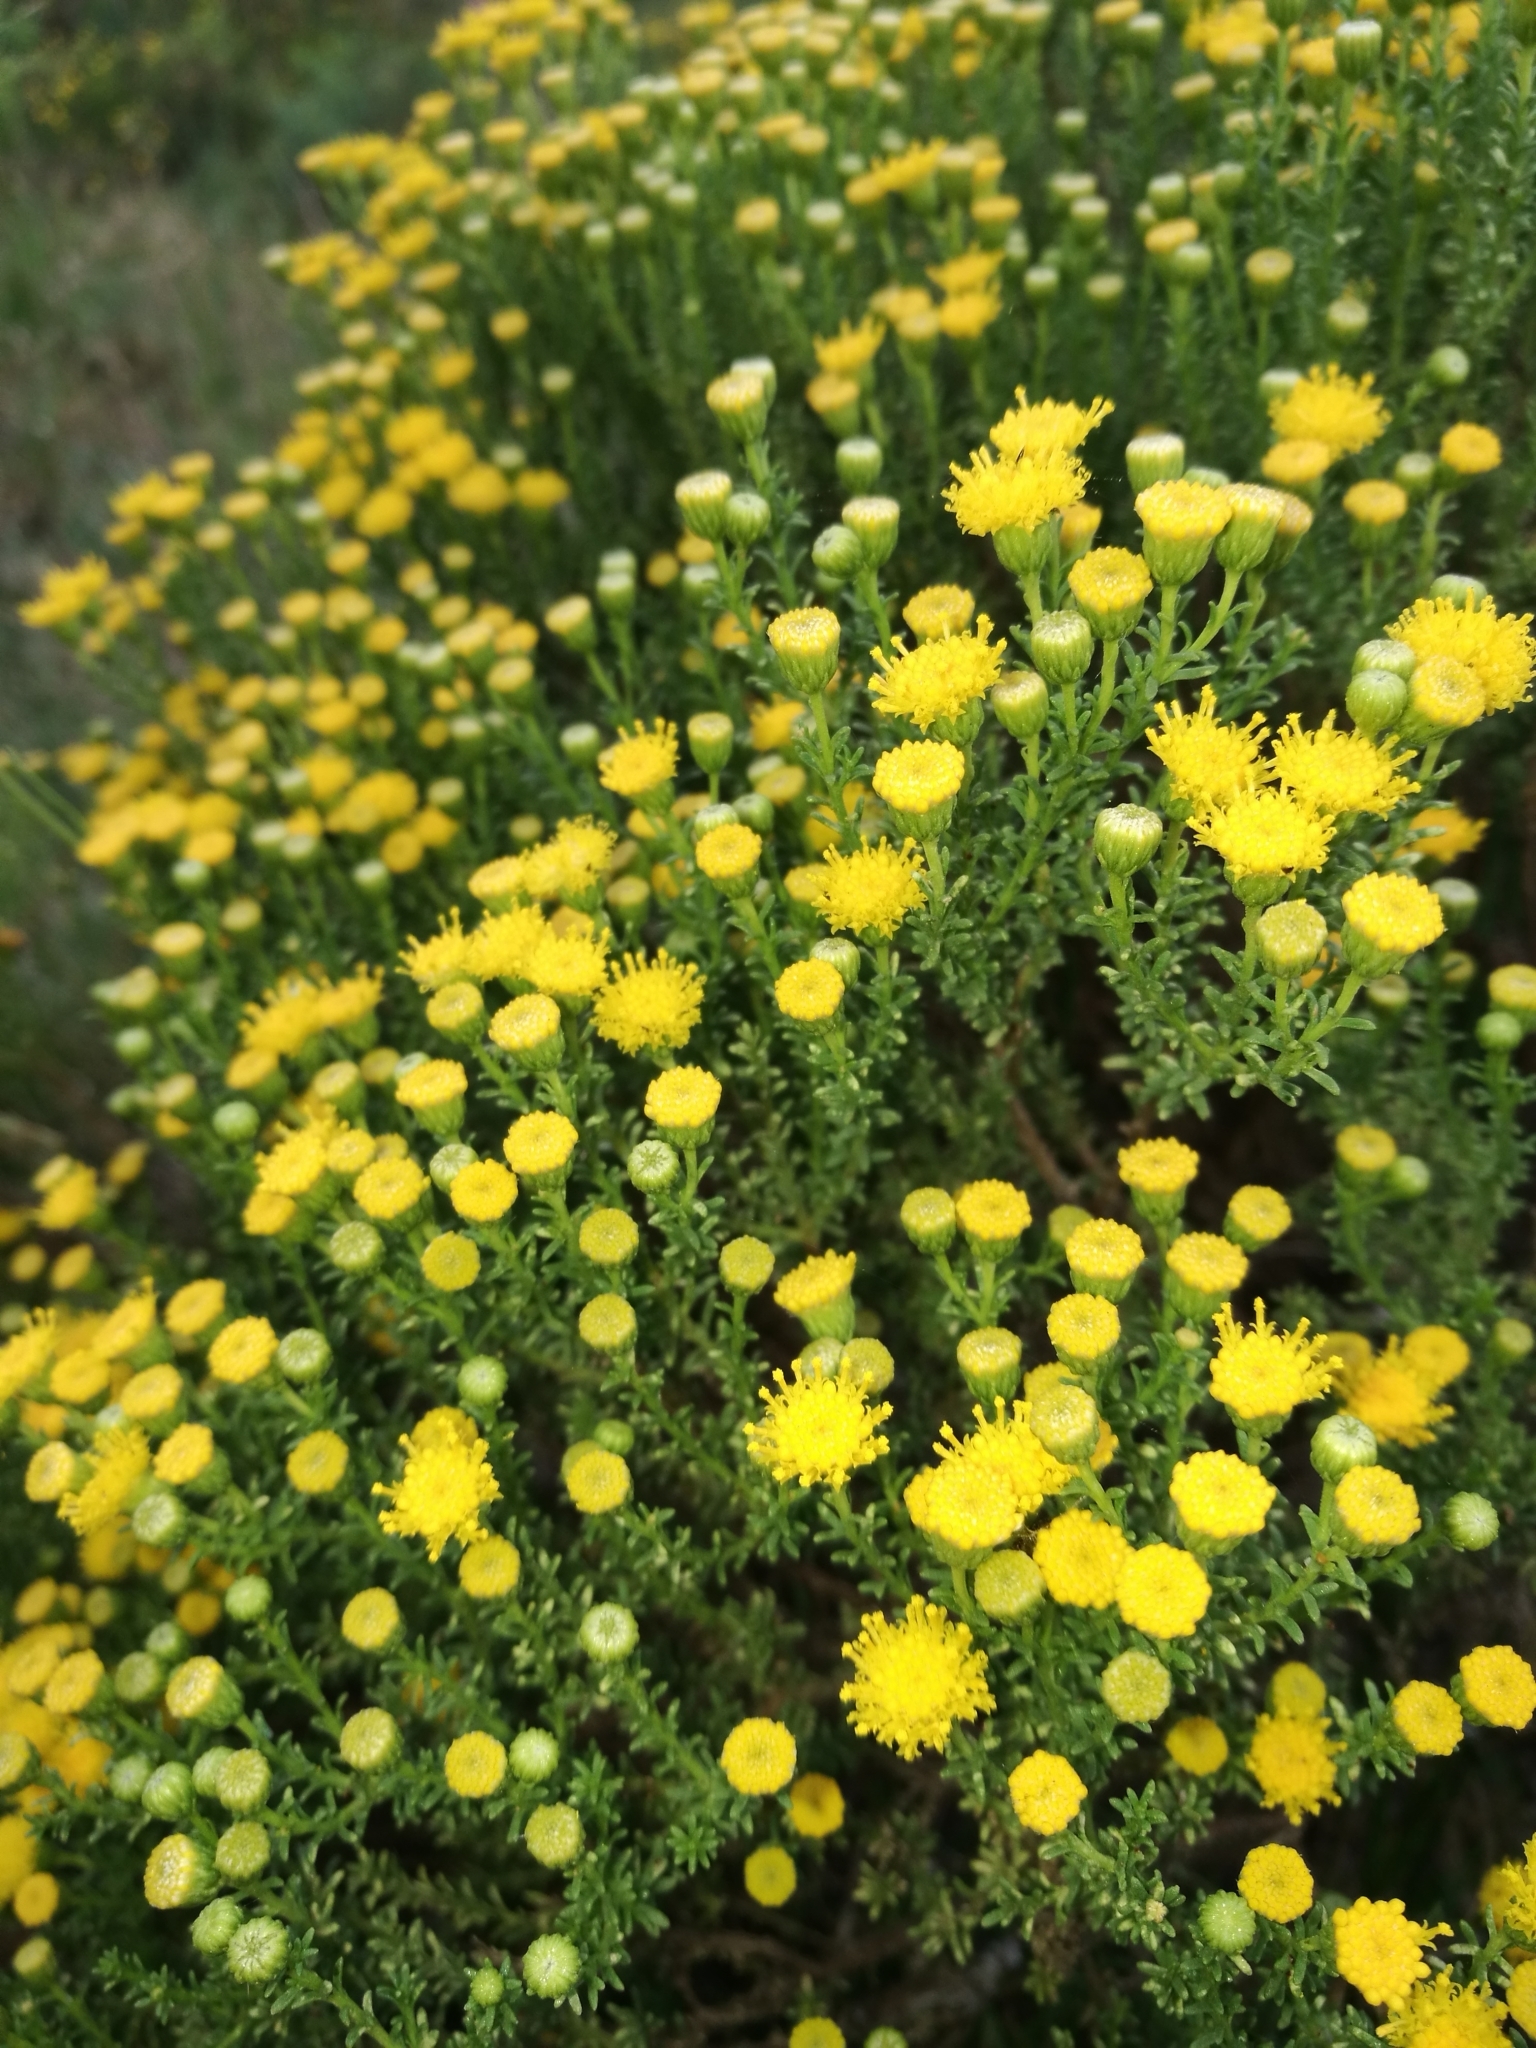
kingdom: Plantae
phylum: Tracheophyta
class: Magnoliopsida
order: Asterales
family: Asteraceae
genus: Oedera
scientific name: Oedera genistifolia
